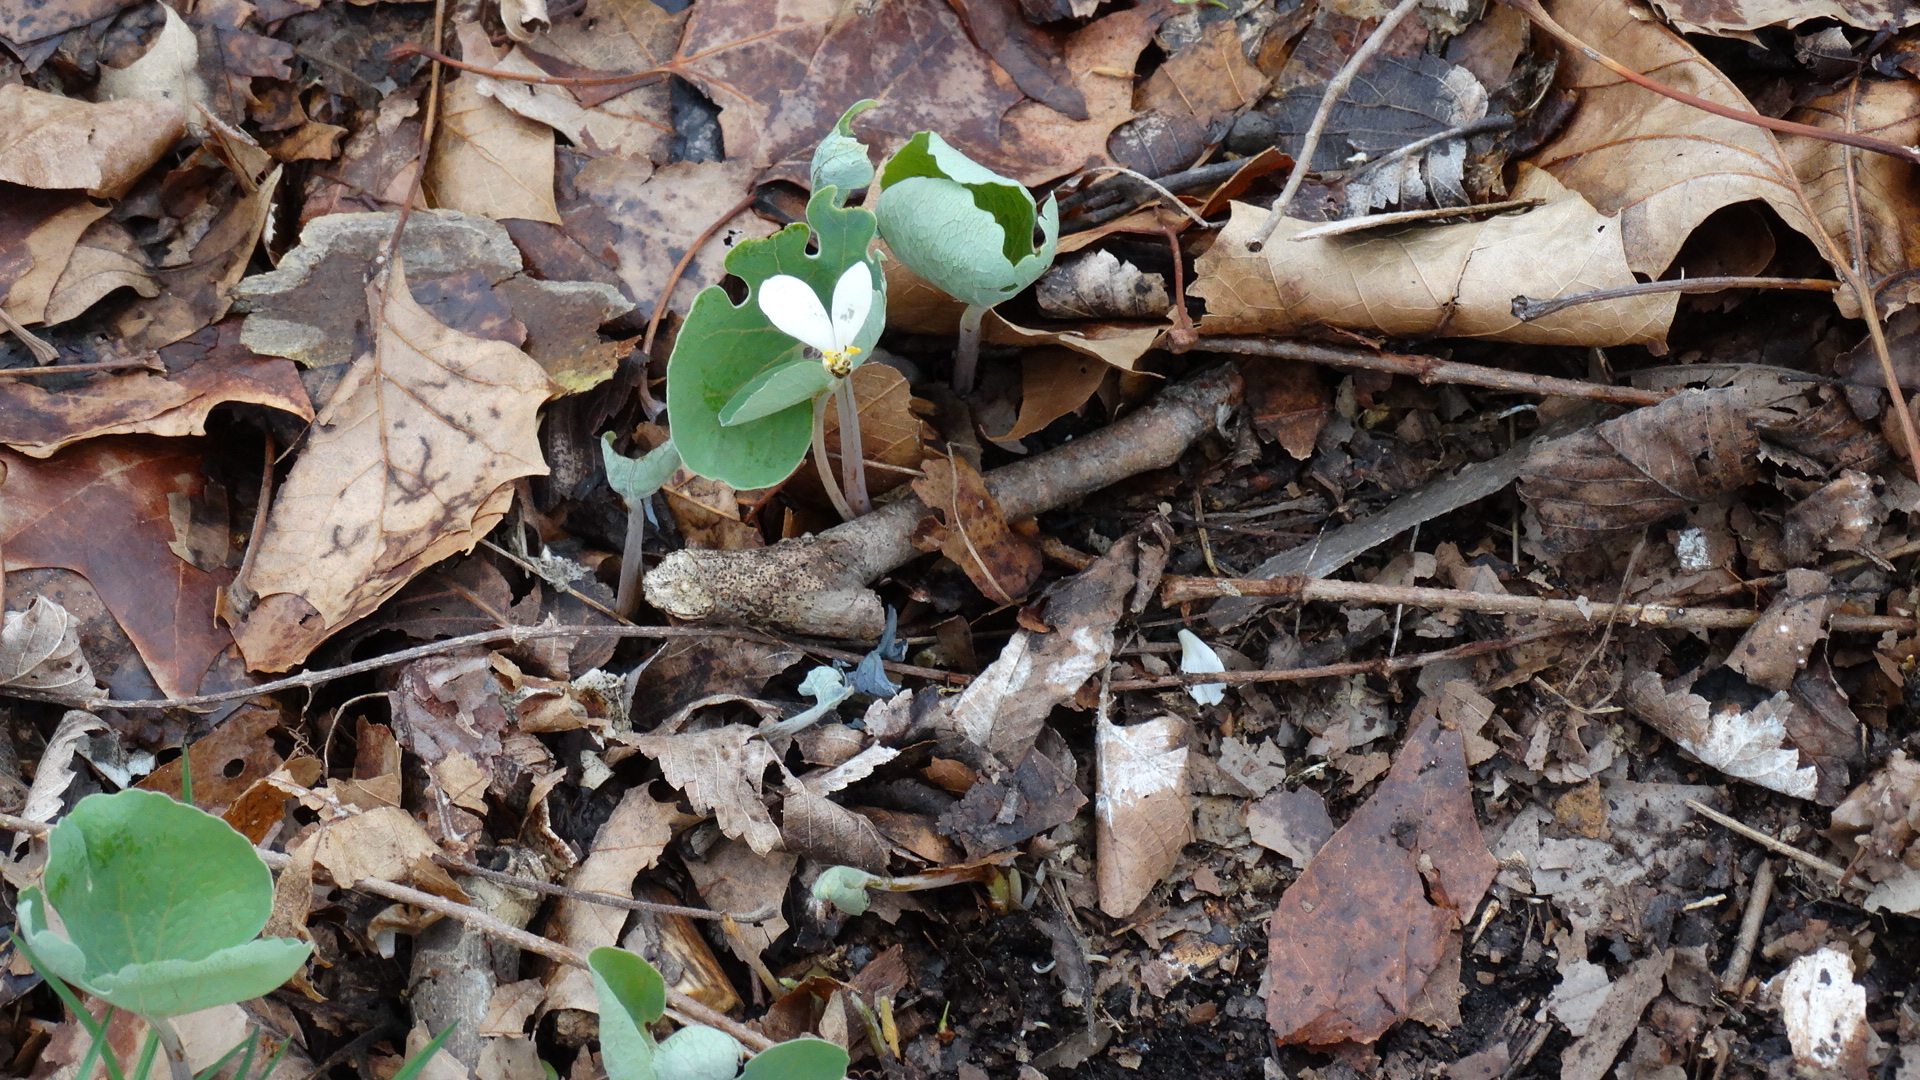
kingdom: Plantae
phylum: Tracheophyta
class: Magnoliopsida
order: Ranunculales
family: Papaveraceae
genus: Sanguinaria
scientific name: Sanguinaria canadensis
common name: Bloodroot
